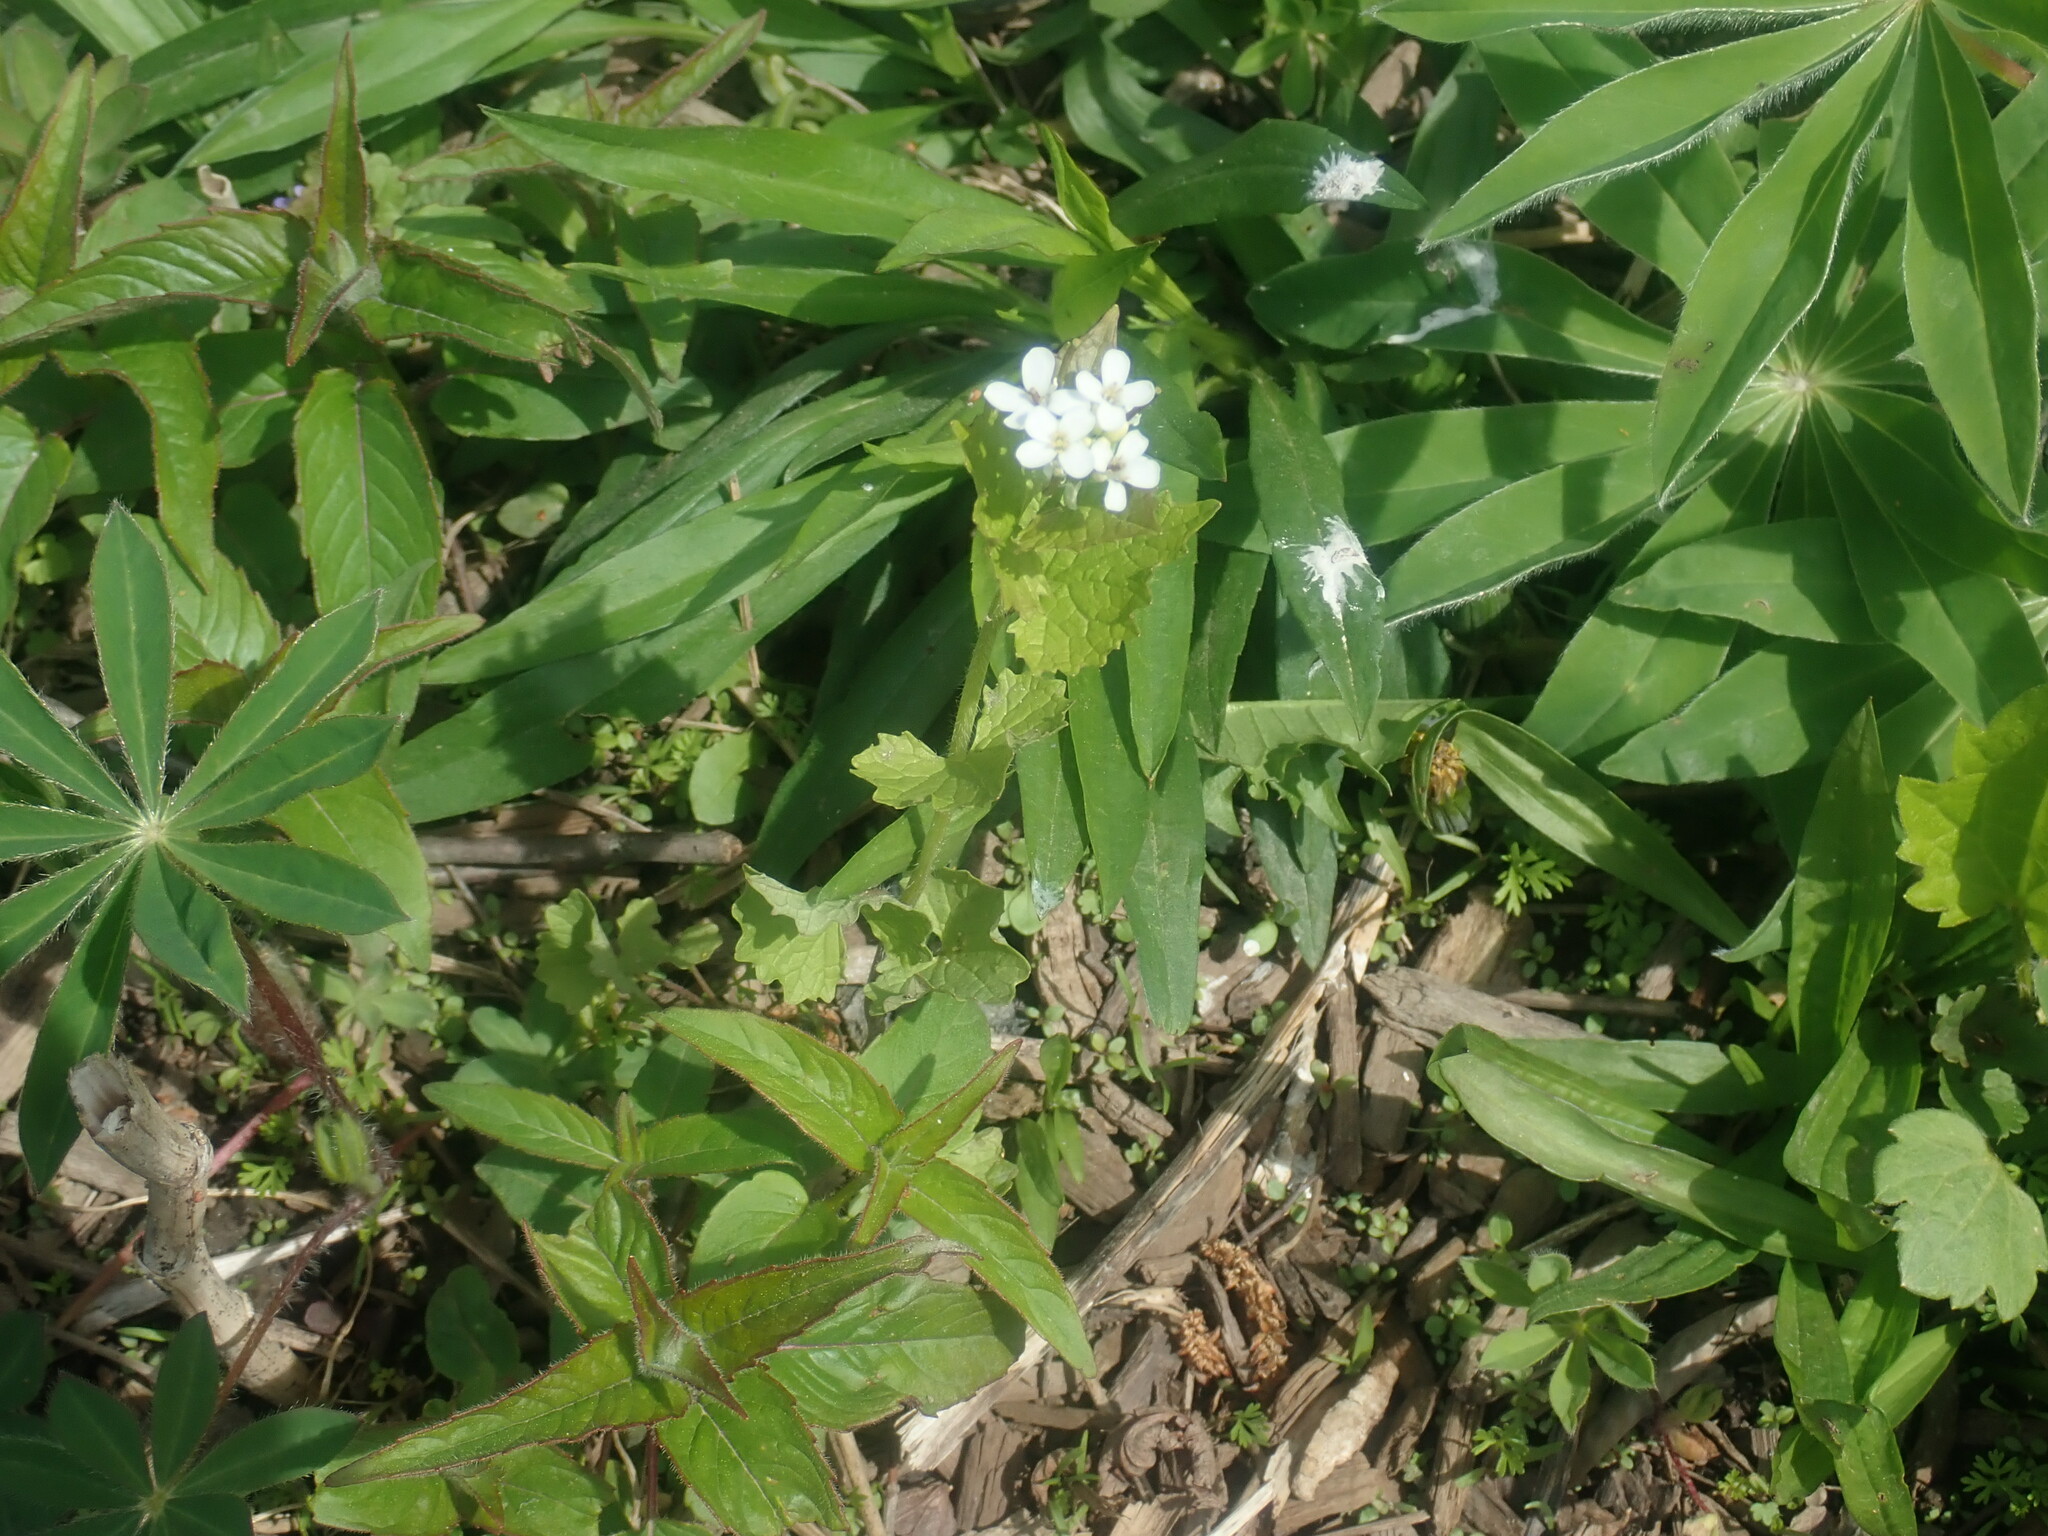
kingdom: Plantae
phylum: Tracheophyta
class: Magnoliopsida
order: Brassicales
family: Brassicaceae
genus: Alliaria
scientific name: Alliaria petiolata
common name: Garlic mustard
